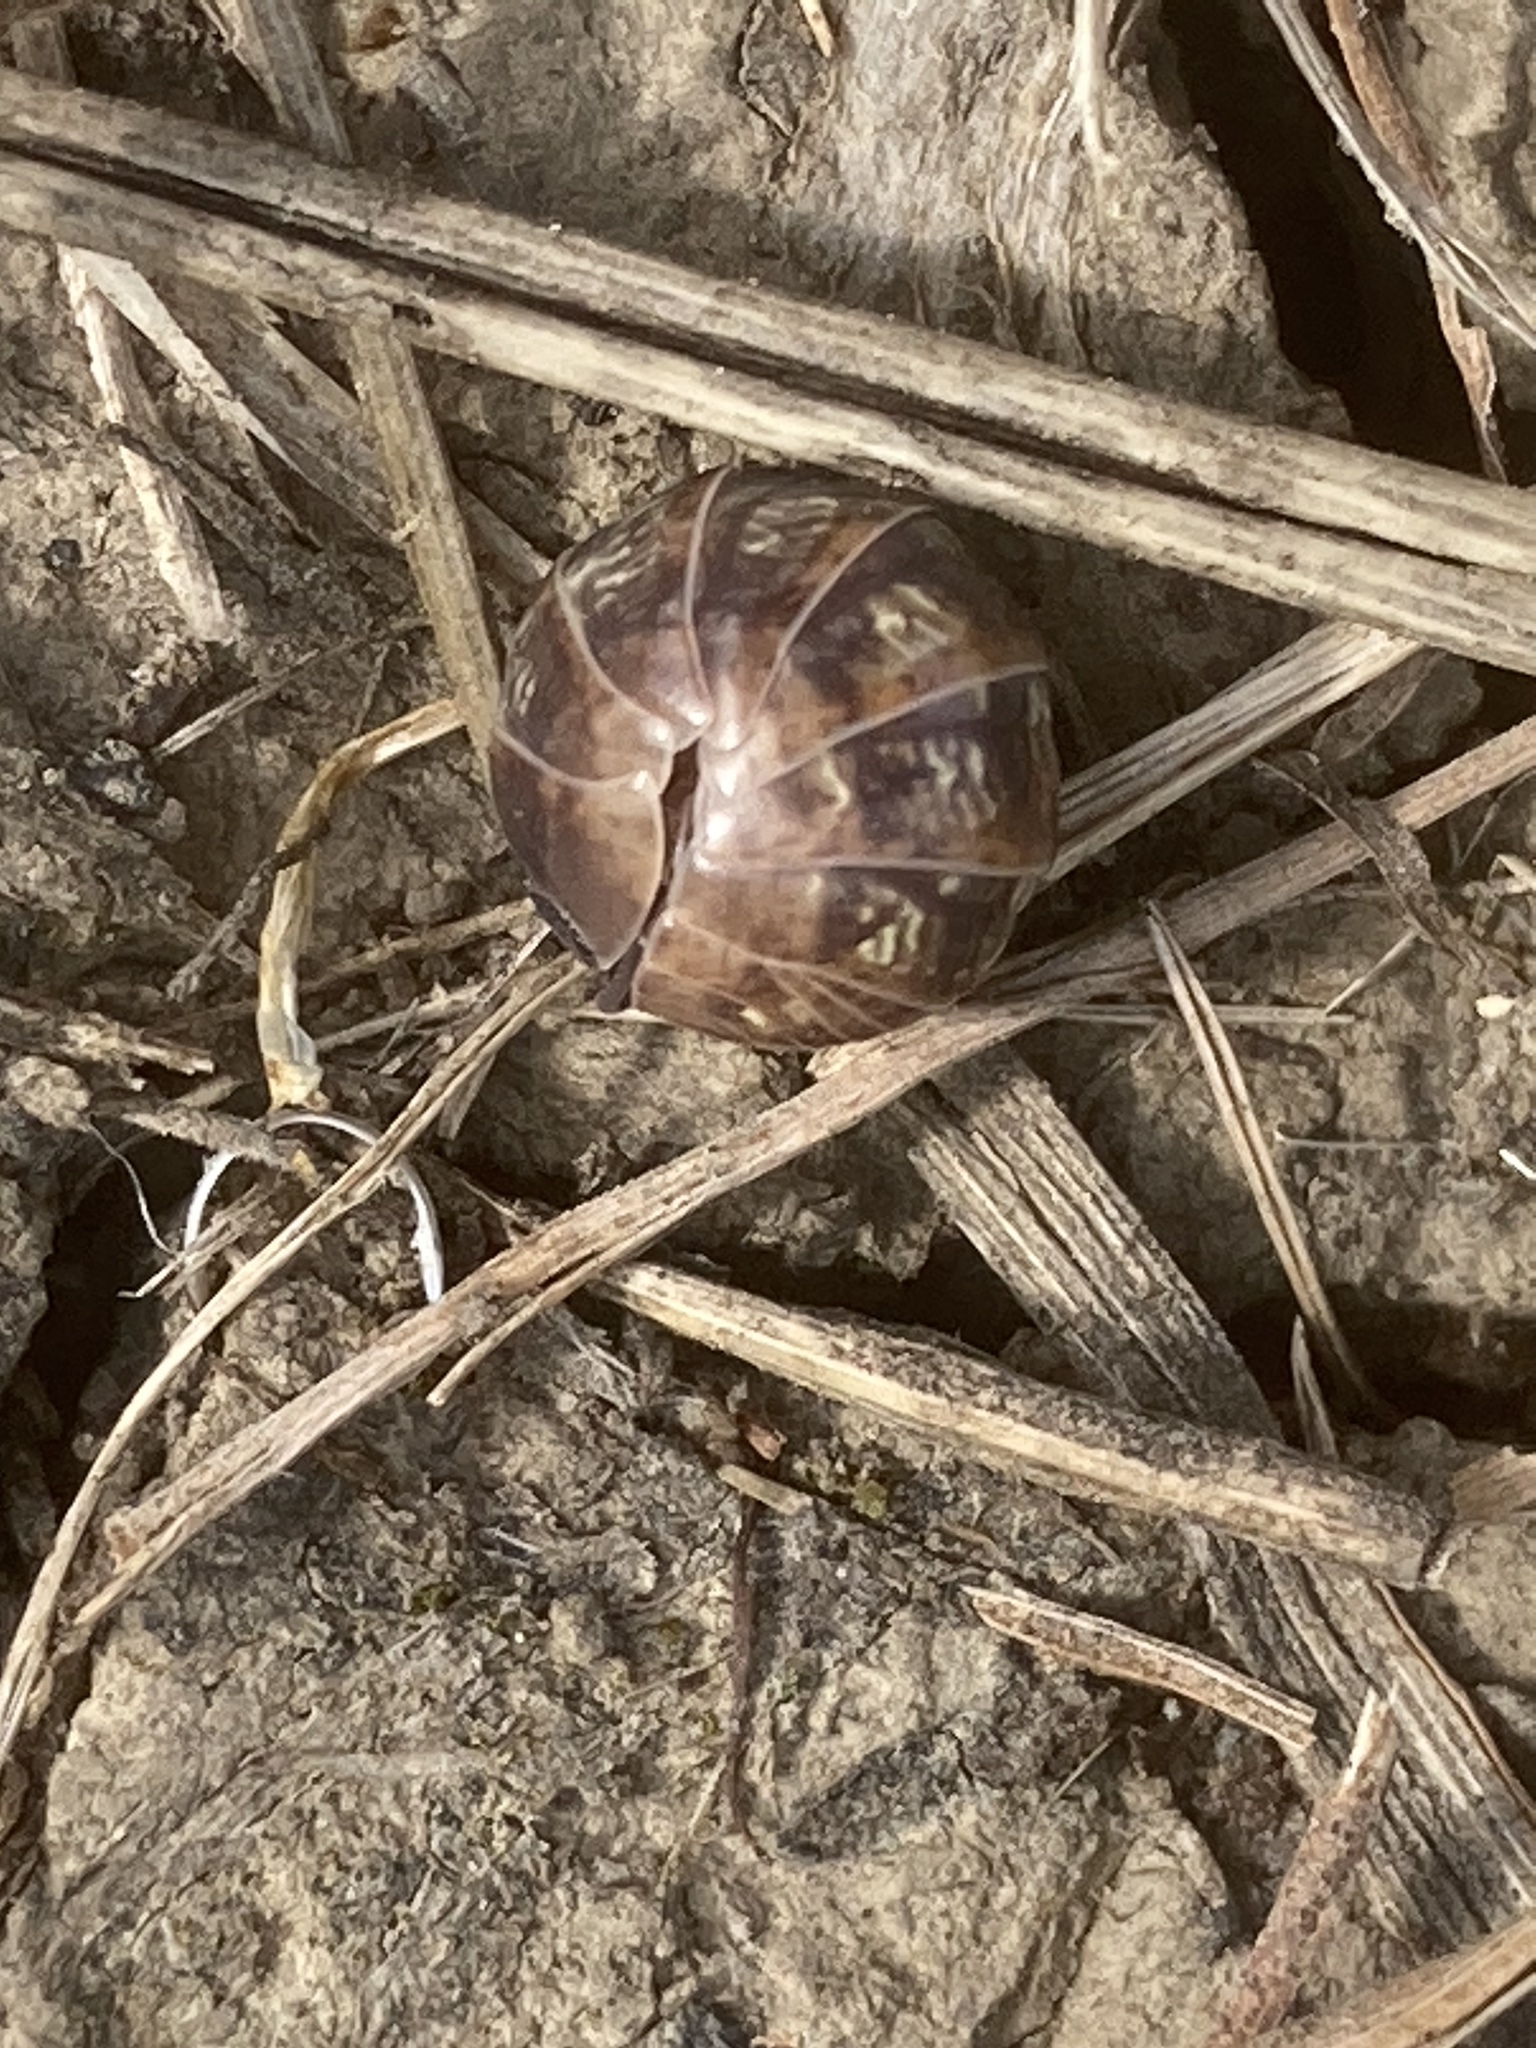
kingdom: Animalia
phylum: Arthropoda
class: Malacostraca
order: Isopoda
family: Armadillidiidae
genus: Armadillidium
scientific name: Armadillidium vulgare
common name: Common pill woodlouse
